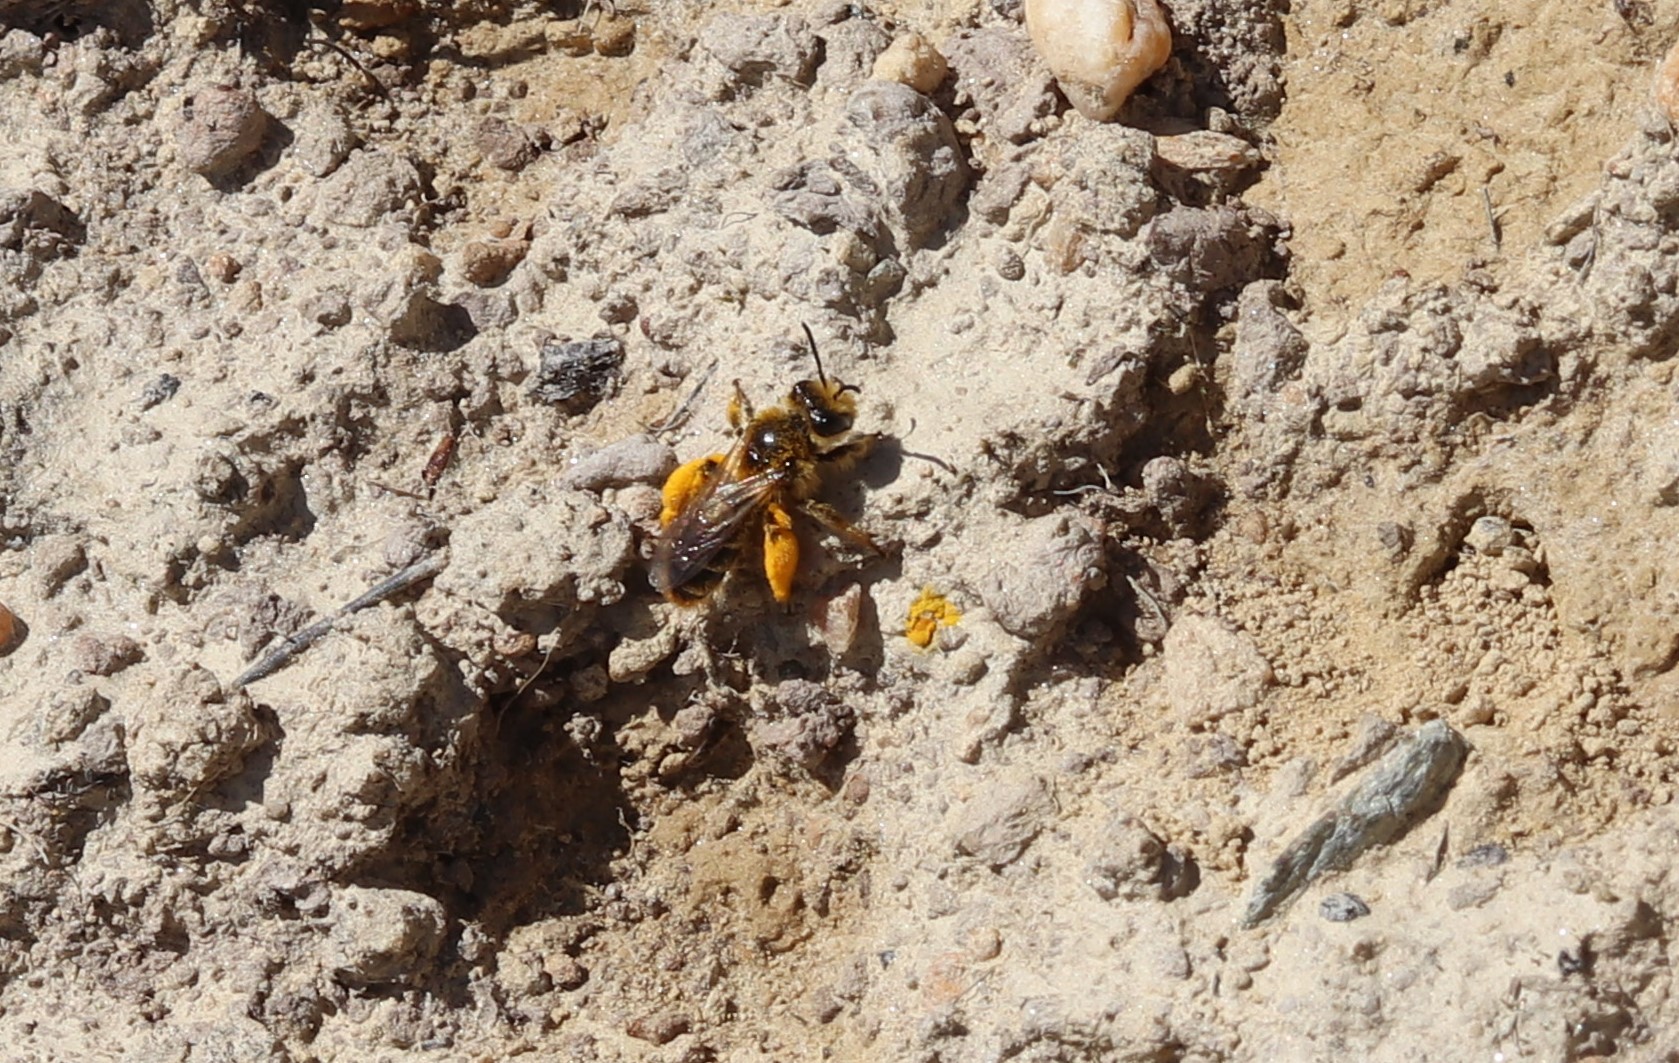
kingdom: Animalia
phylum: Arthropoda
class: Insecta
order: Hymenoptera
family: Colletidae
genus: Leioproctus
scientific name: Leioproctus fulvescens
